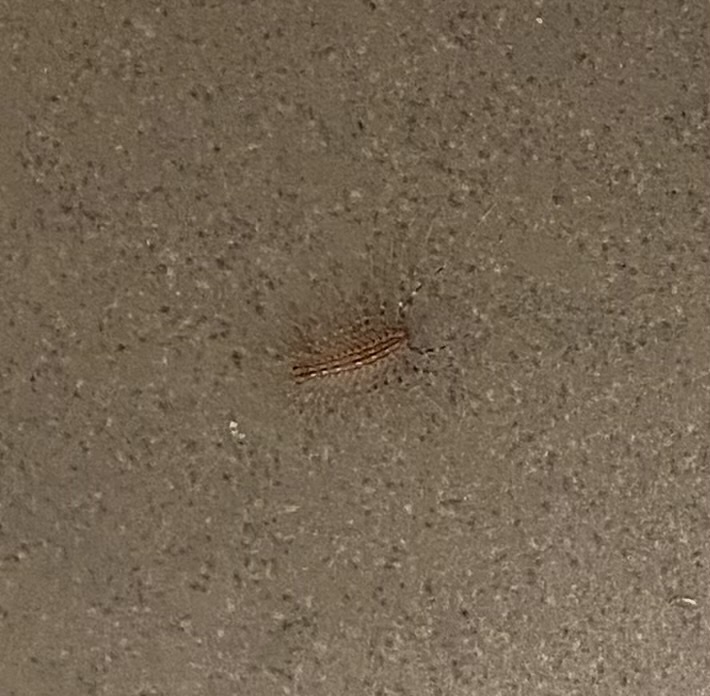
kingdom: Animalia
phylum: Arthropoda
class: Chilopoda
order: Scutigeromorpha
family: Scutigeridae
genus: Scutigera
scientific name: Scutigera coleoptrata
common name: House centipede
